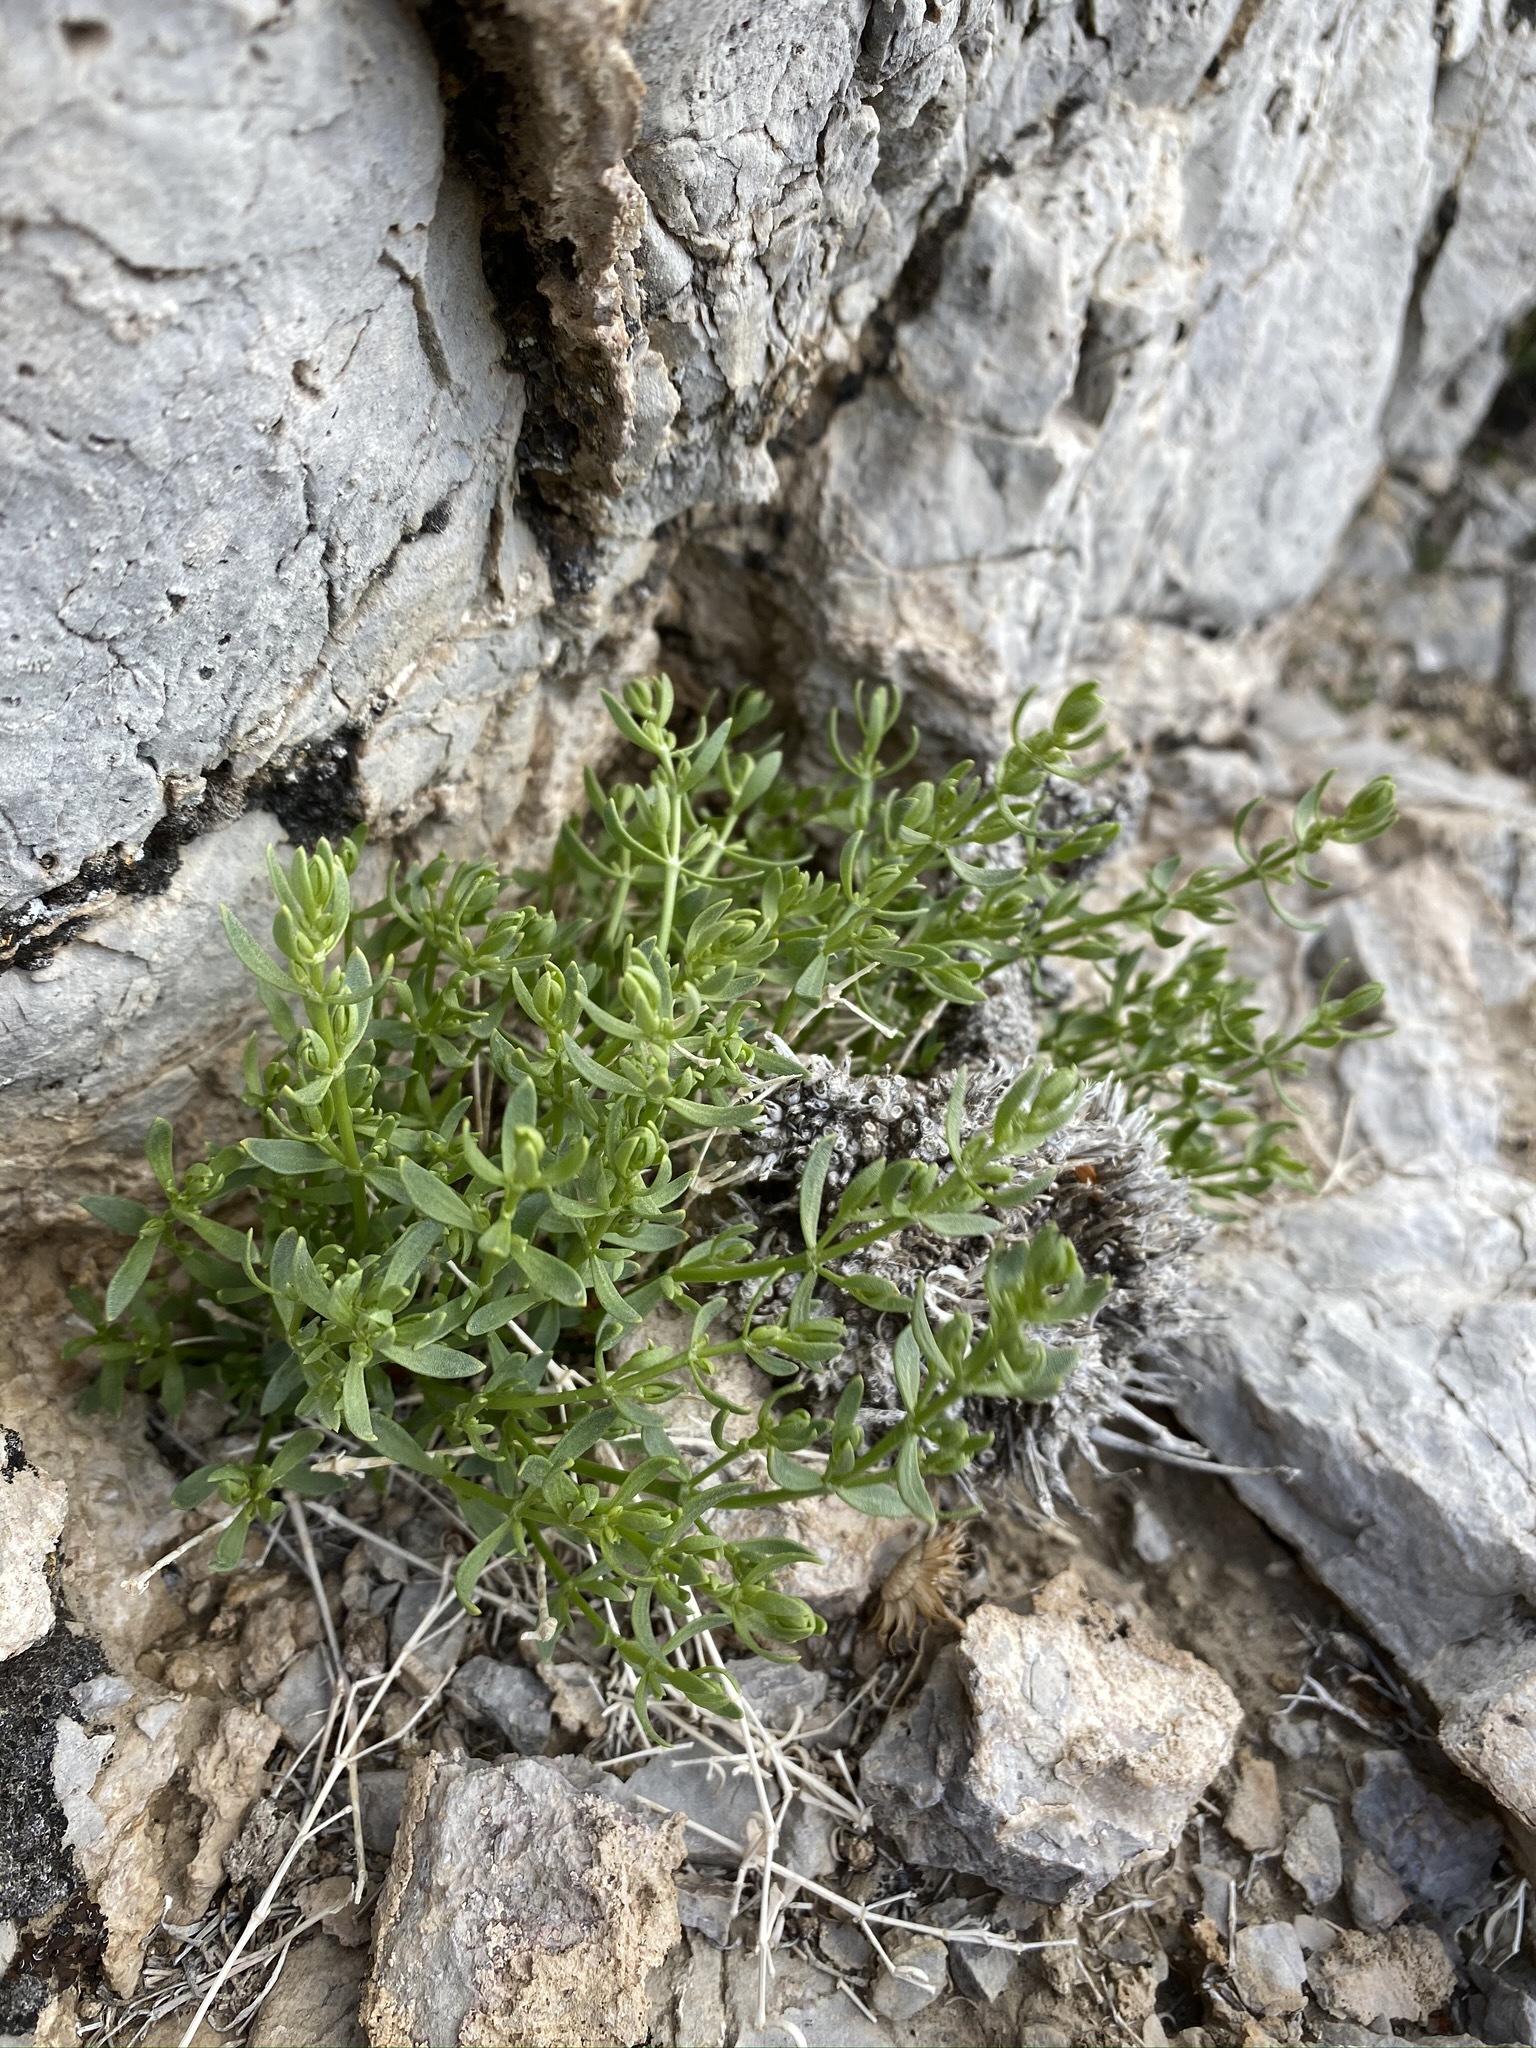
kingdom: Plantae
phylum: Tracheophyta
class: Magnoliopsida
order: Caryophyllales
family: Caryophyllaceae
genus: Scopulophila
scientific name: Scopulophila rixfordii
